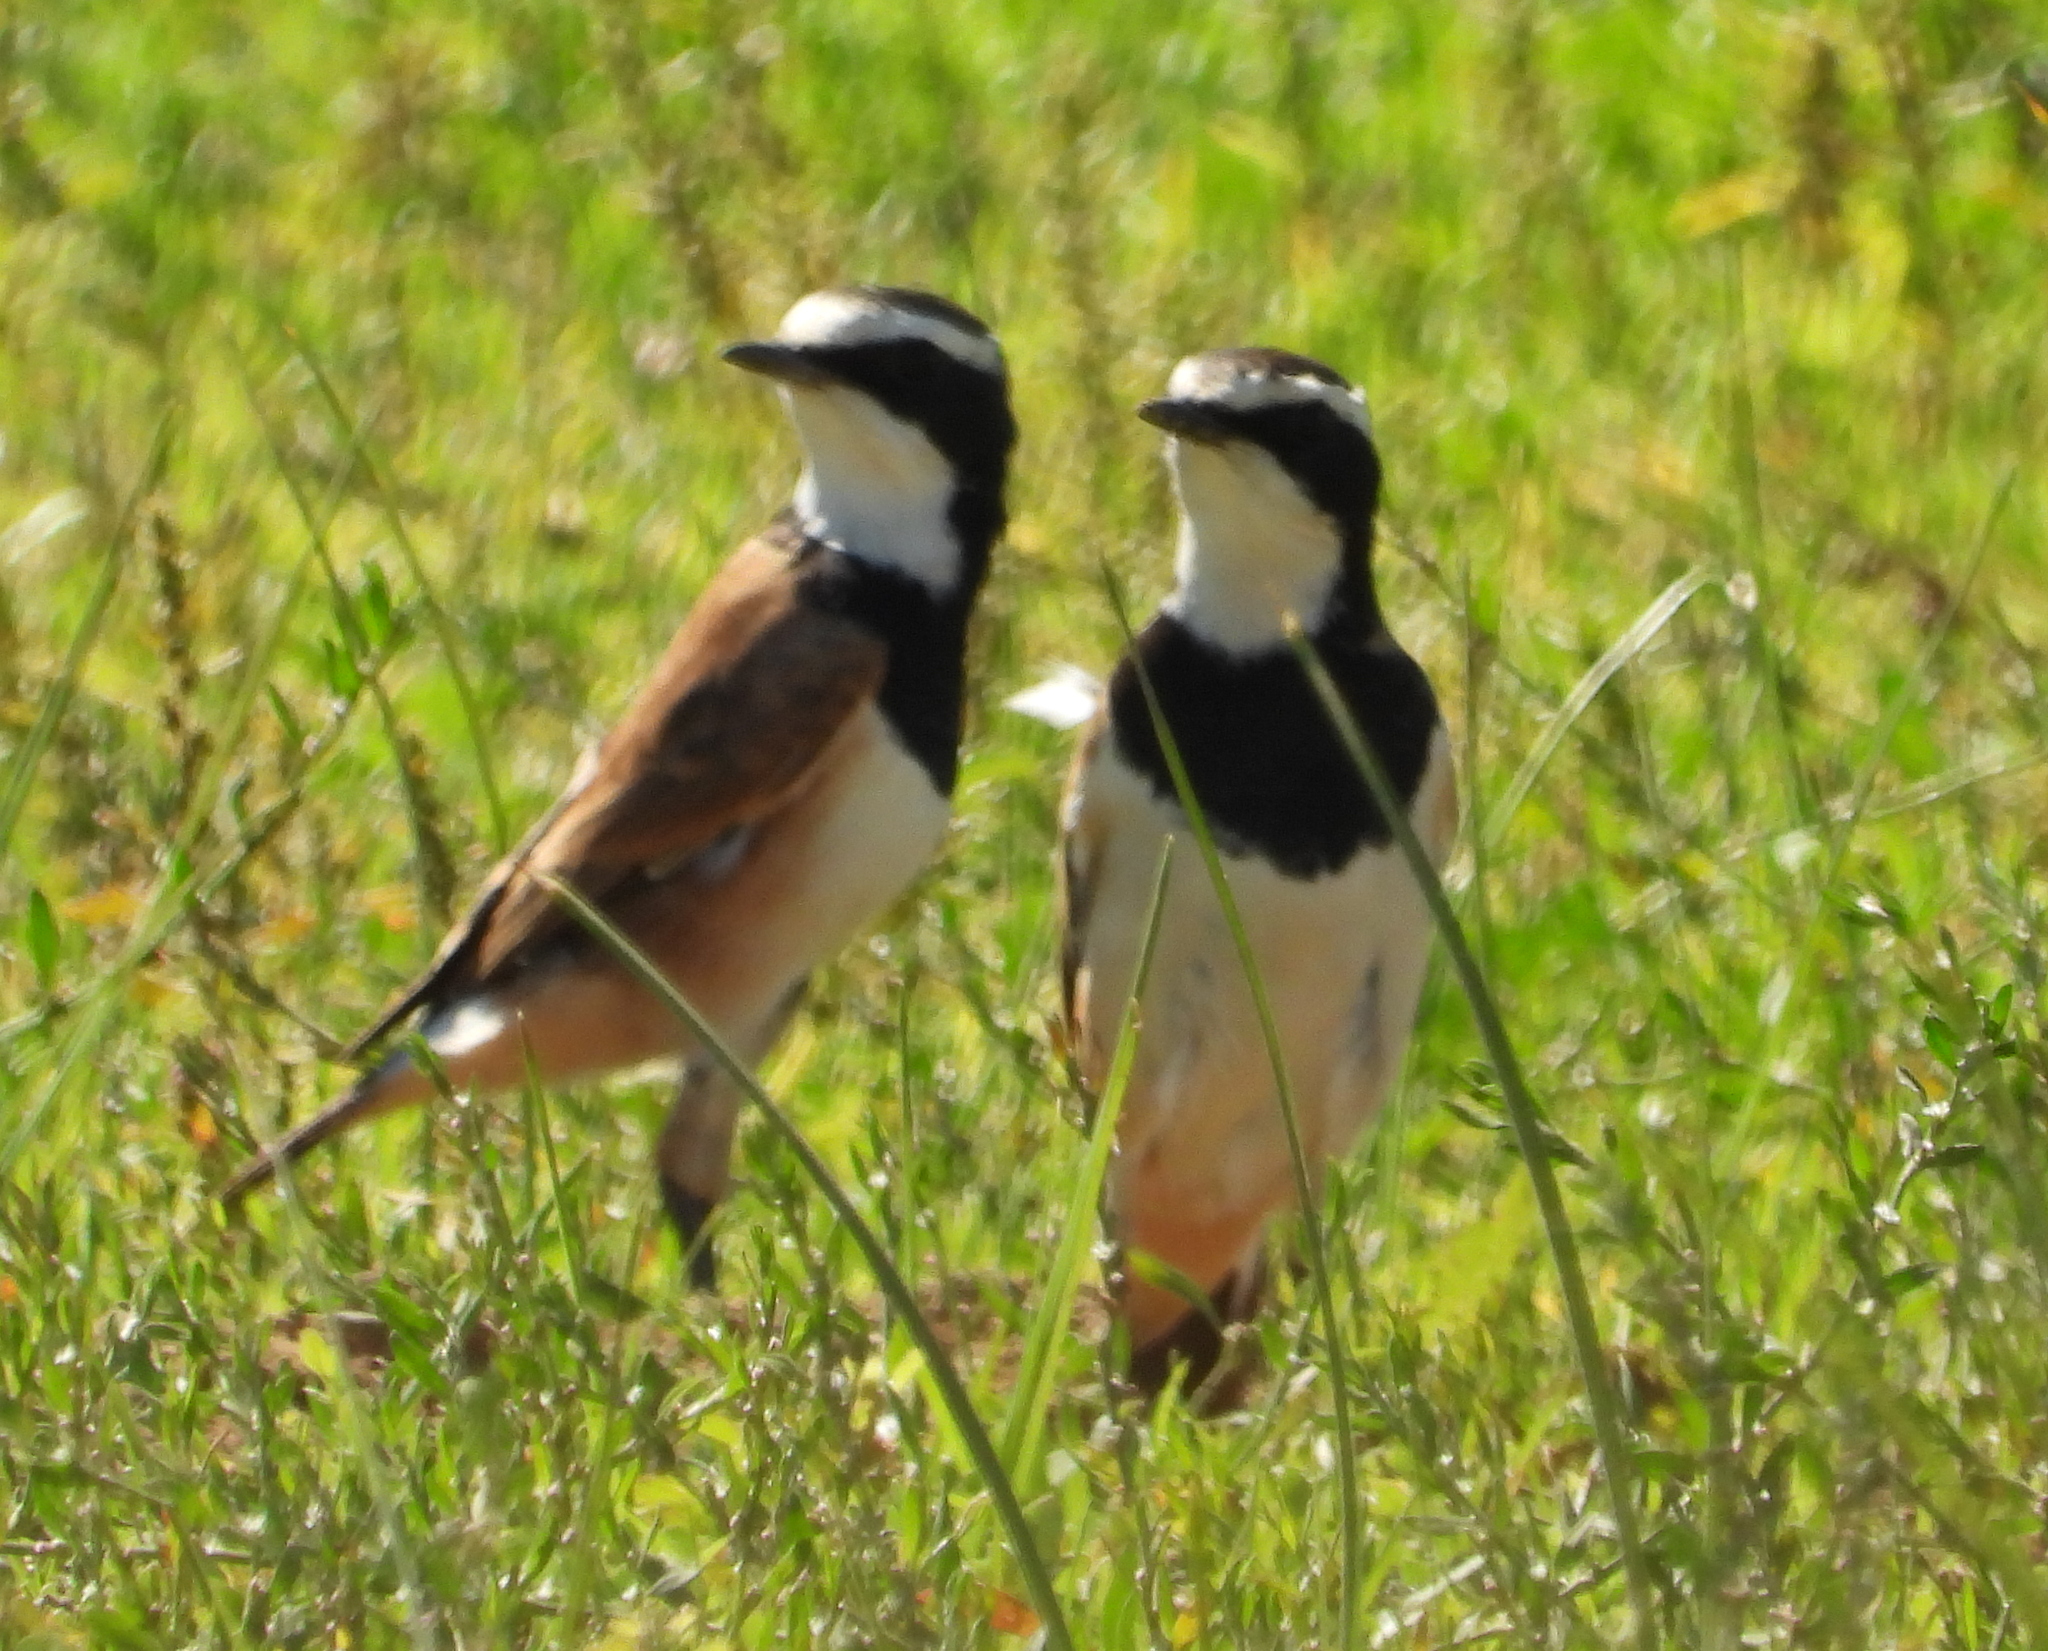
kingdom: Animalia
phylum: Chordata
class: Aves
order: Passeriformes
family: Muscicapidae
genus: Oenanthe
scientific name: Oenanthe pileata
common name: Capped wheatear
